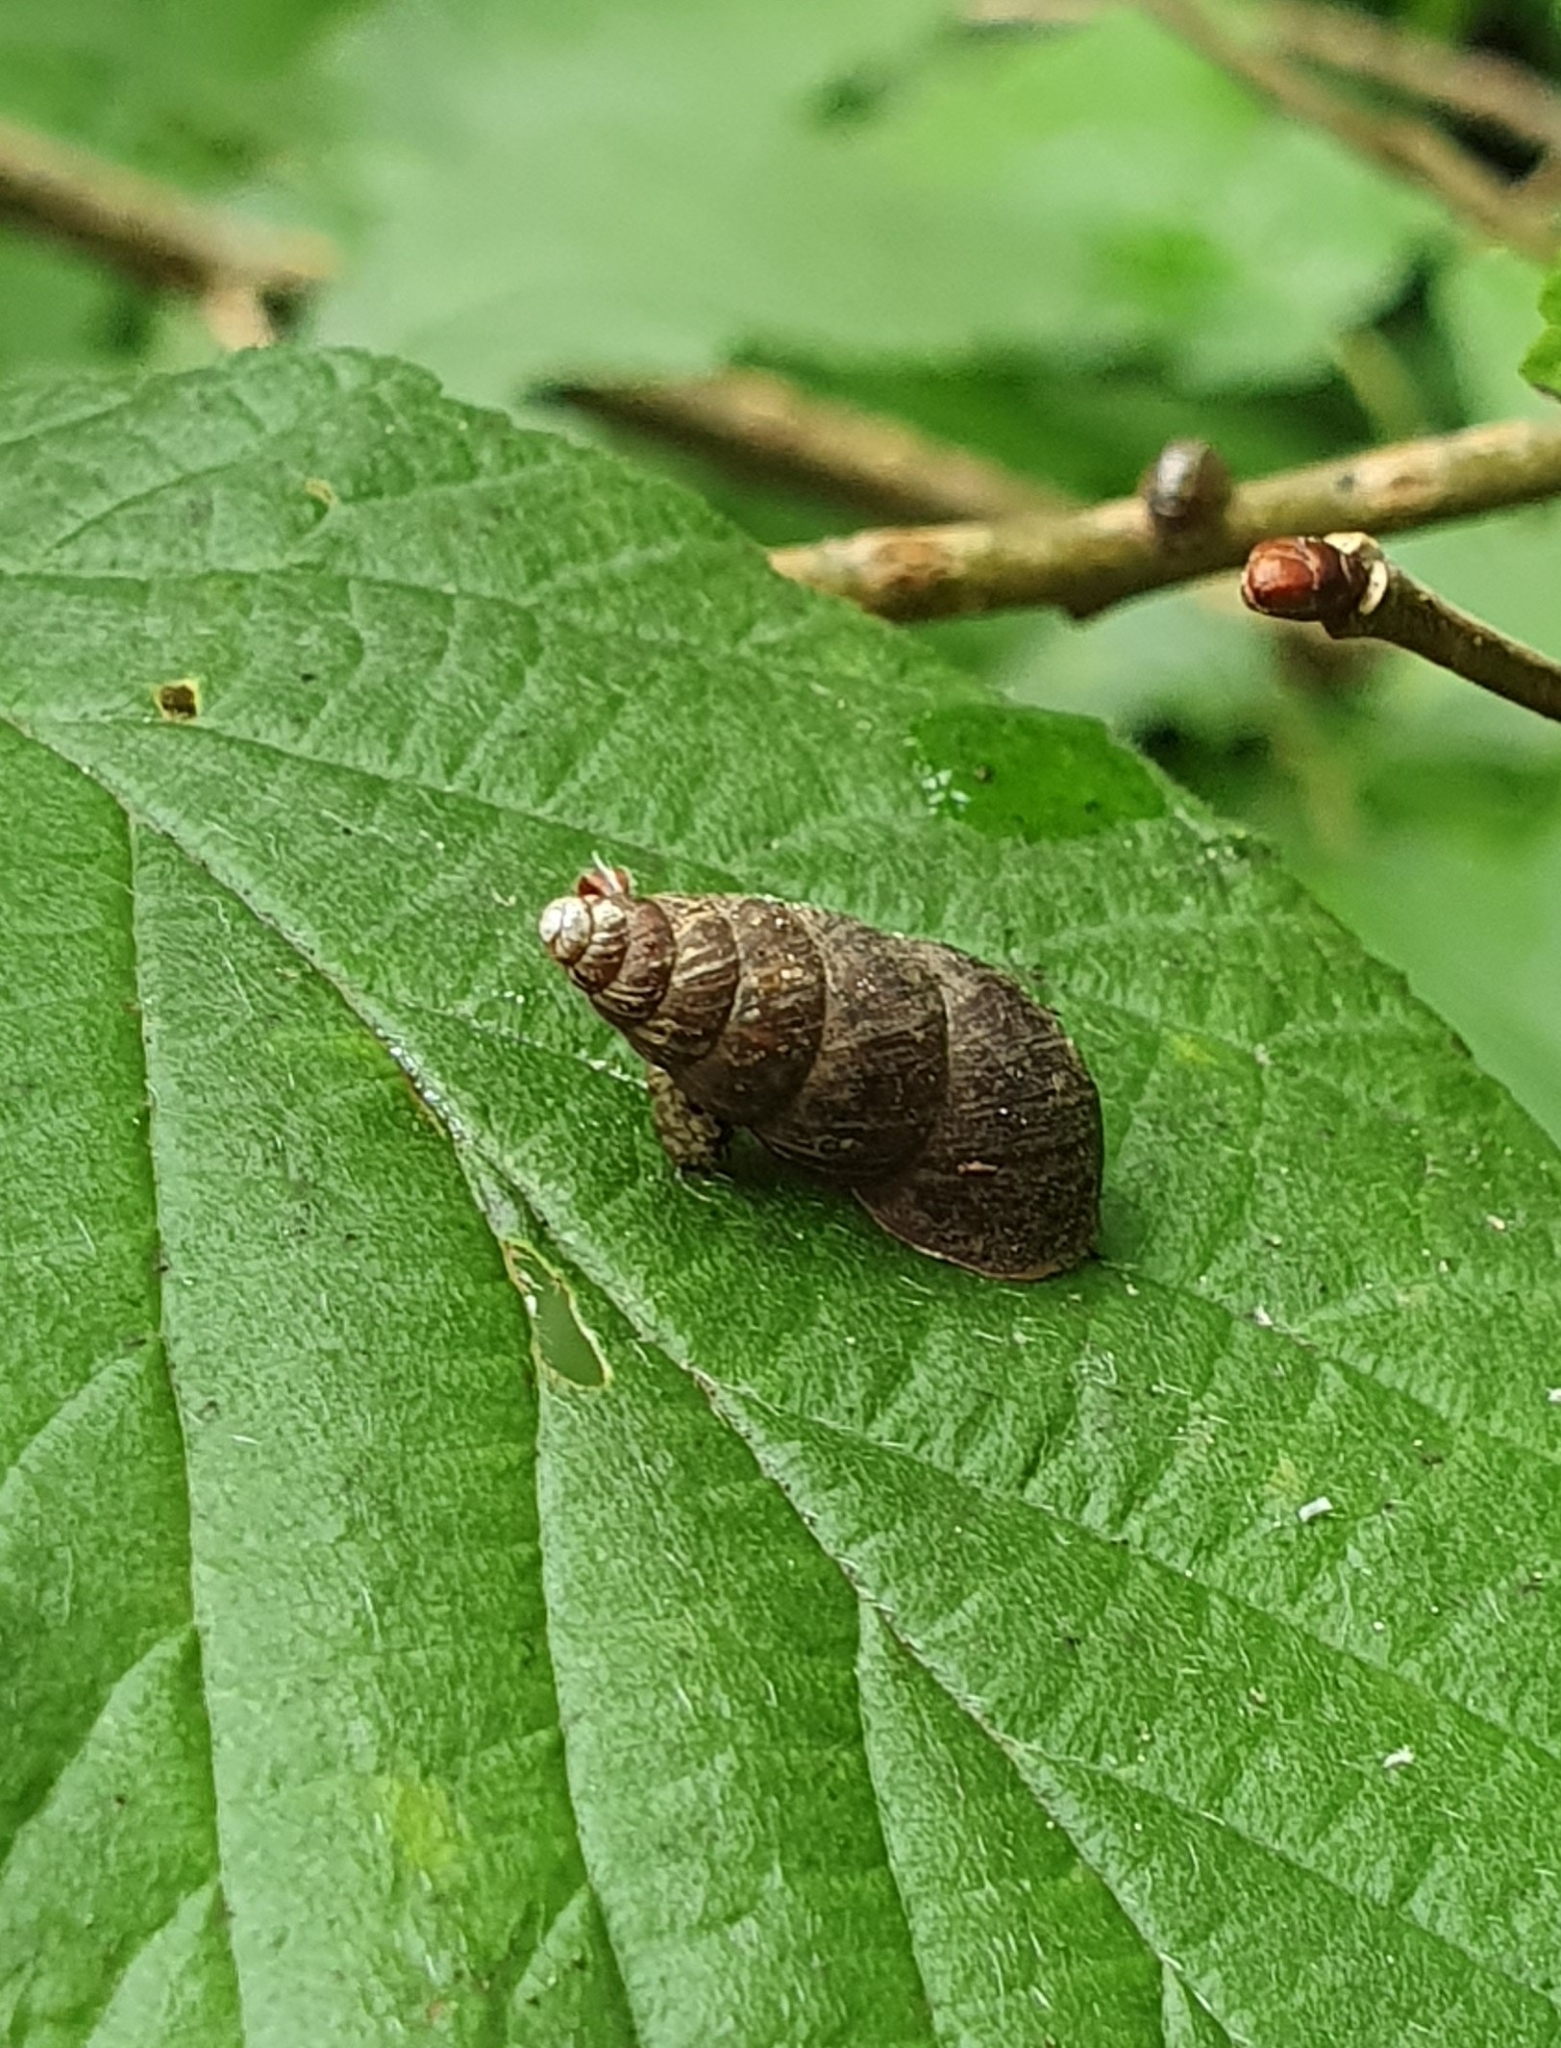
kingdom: Animalia
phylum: Mollusca
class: Gastropoda
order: Stylommatophora
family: Enidae
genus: Ena
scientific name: Ena montana
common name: Mountain bulin
